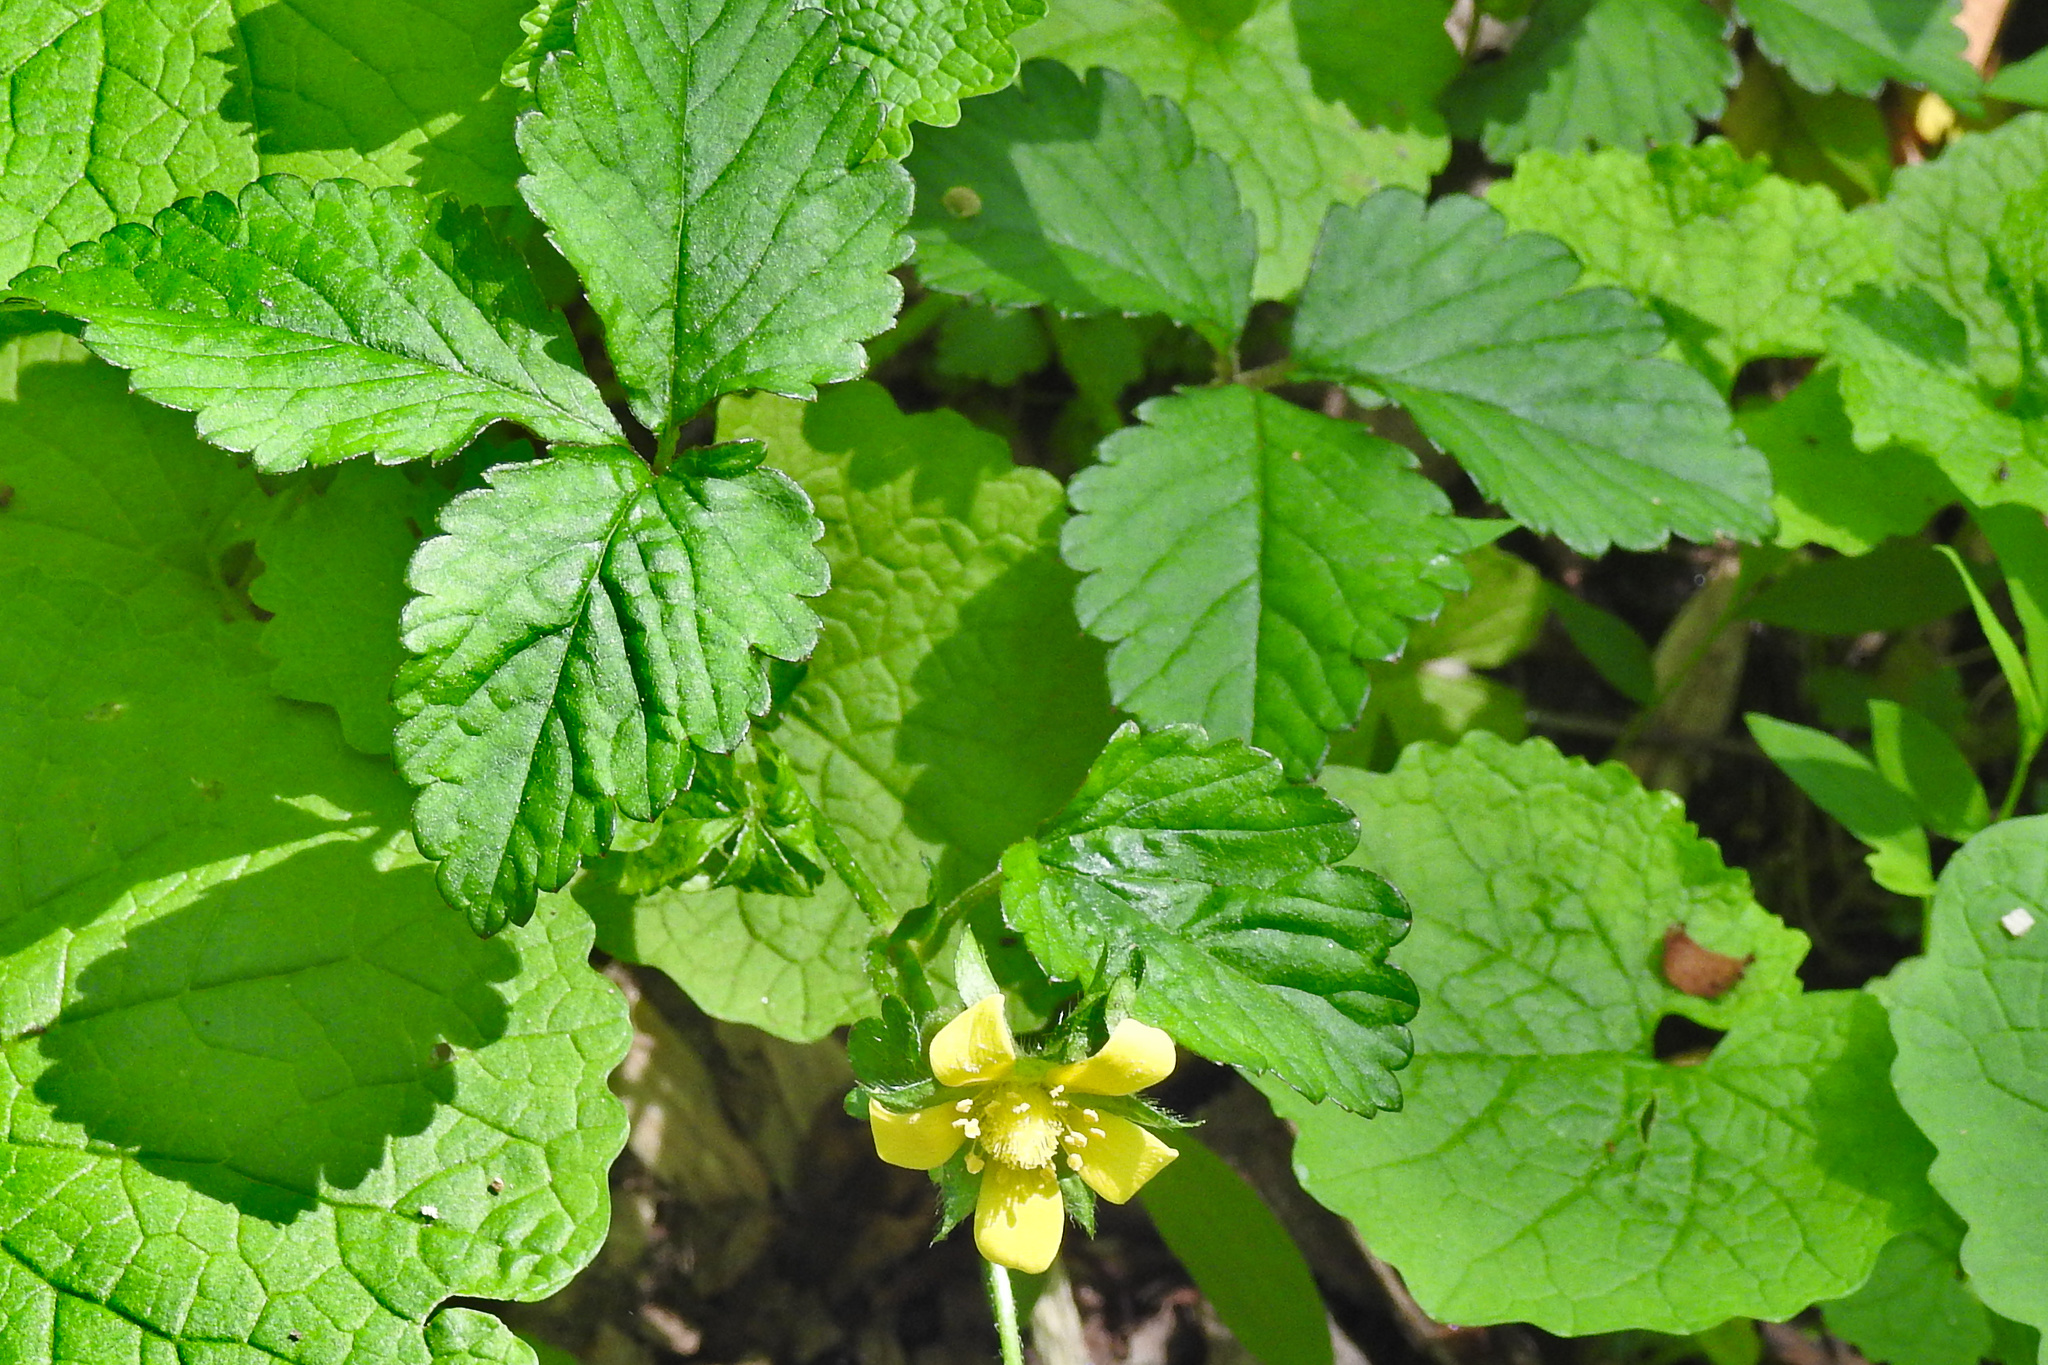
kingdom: Plantae
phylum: Tracheophyta
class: Magnoliopsida
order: Rosales
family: Rosaceae
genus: Potentilla
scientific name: Potentilla indica
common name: Yellow-flowered strawberry
